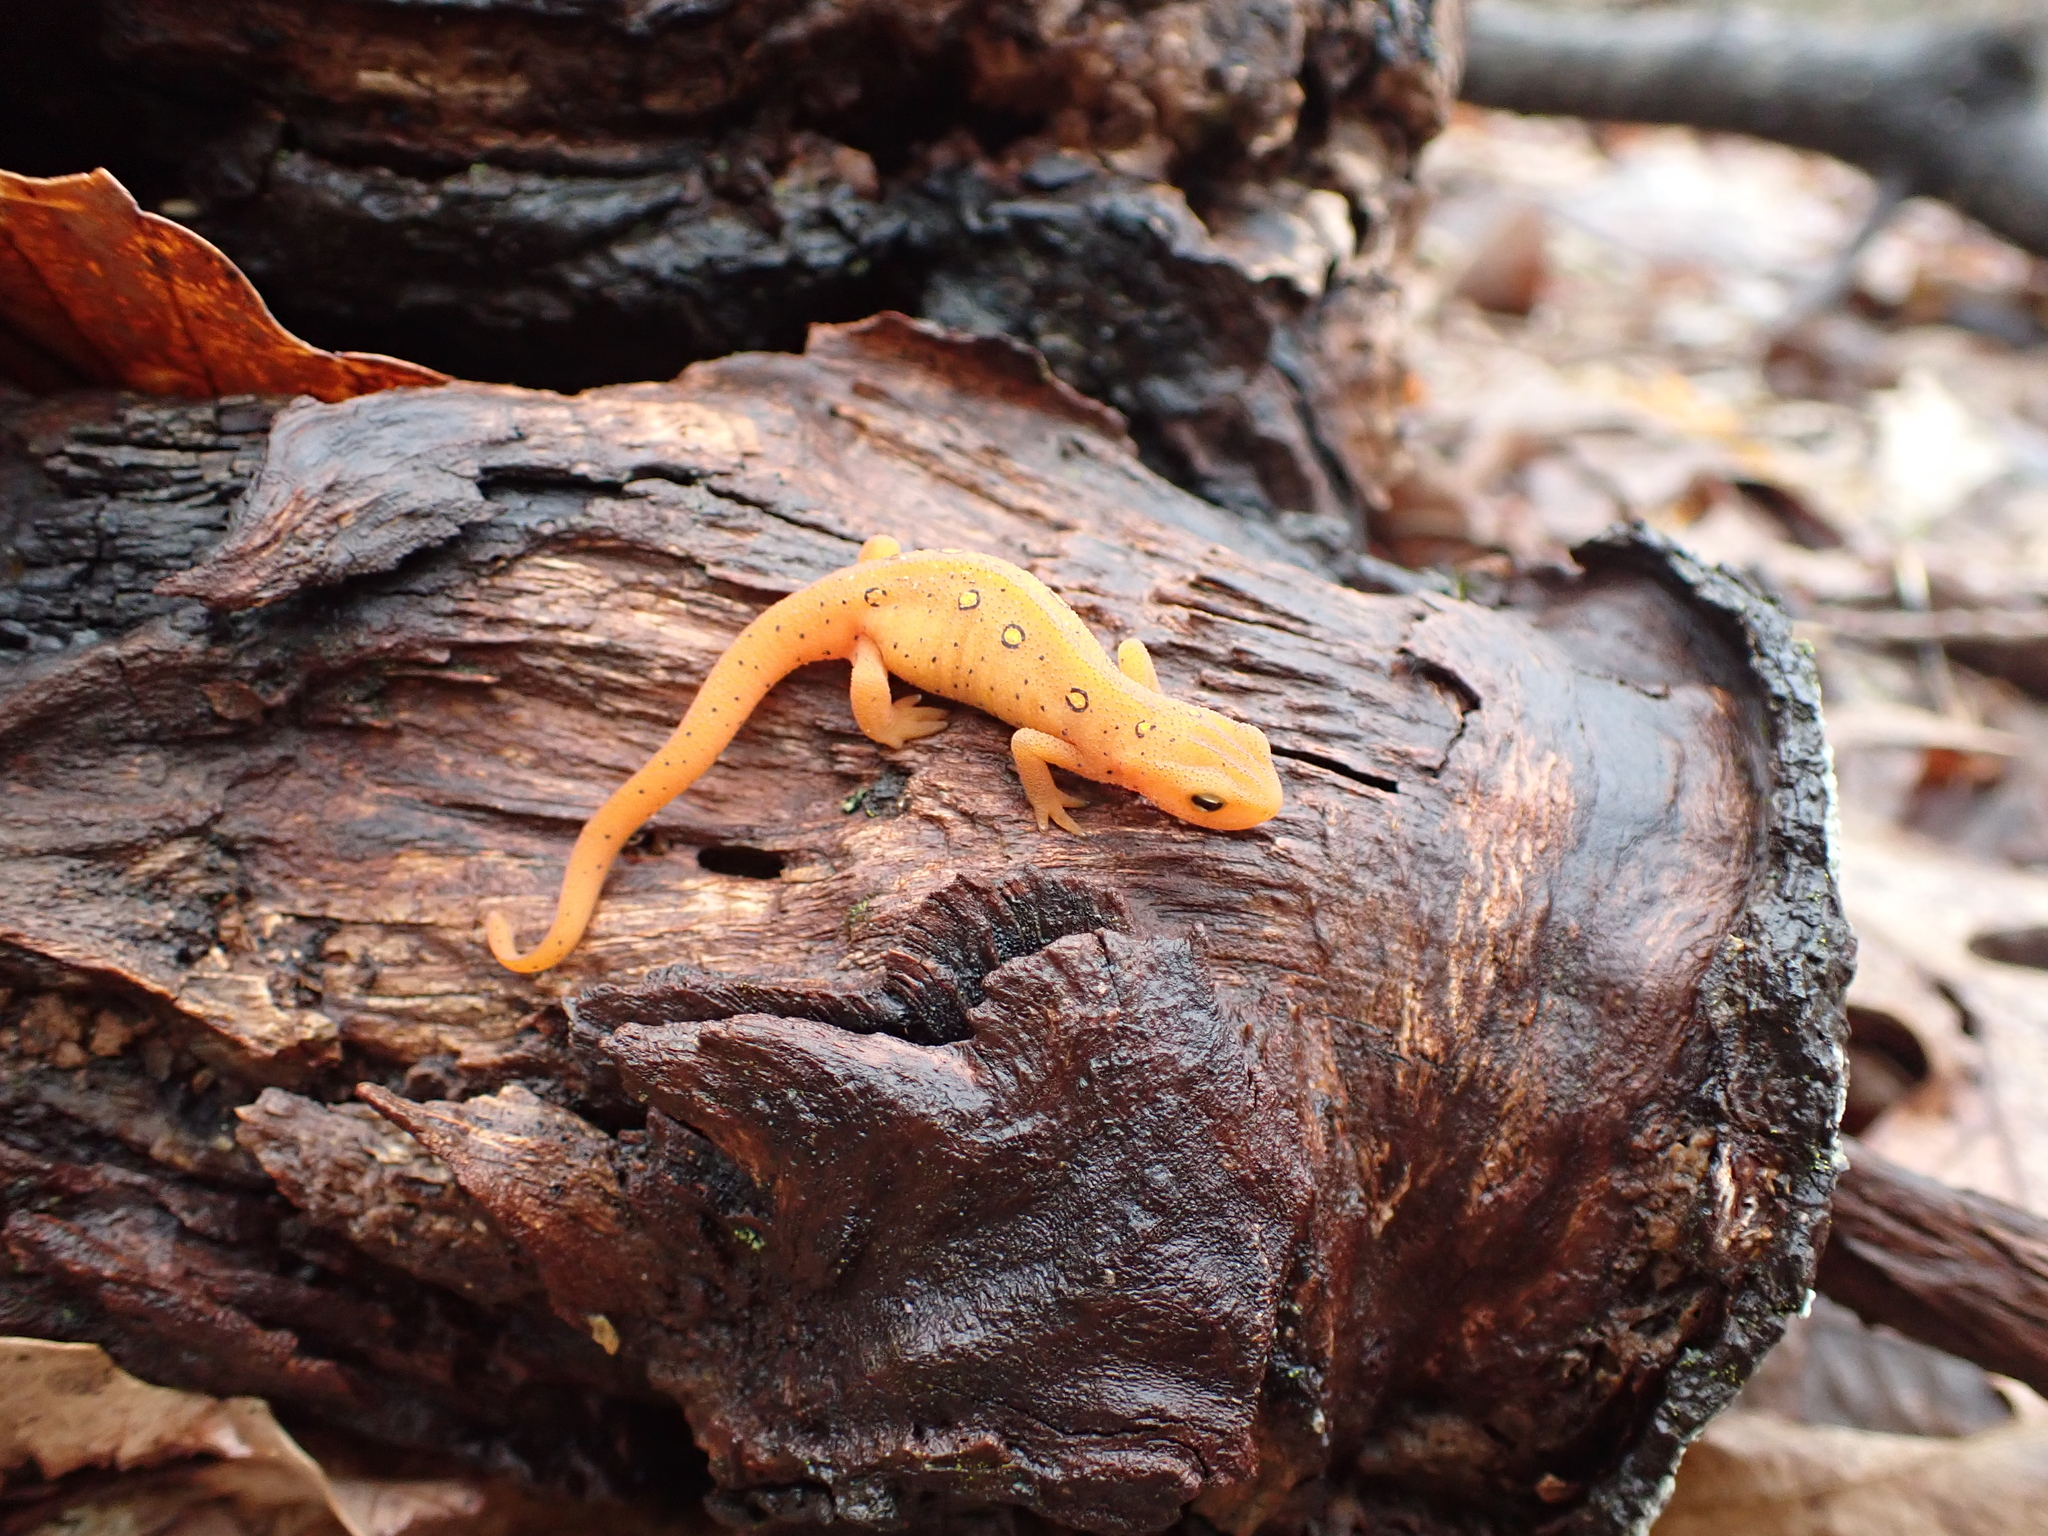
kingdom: Animalia
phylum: Chordata
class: Amphibia
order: Caudata
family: Salamandridae
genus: Notophthalmus
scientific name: Notophthalmus viridescens
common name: Eastern newt
